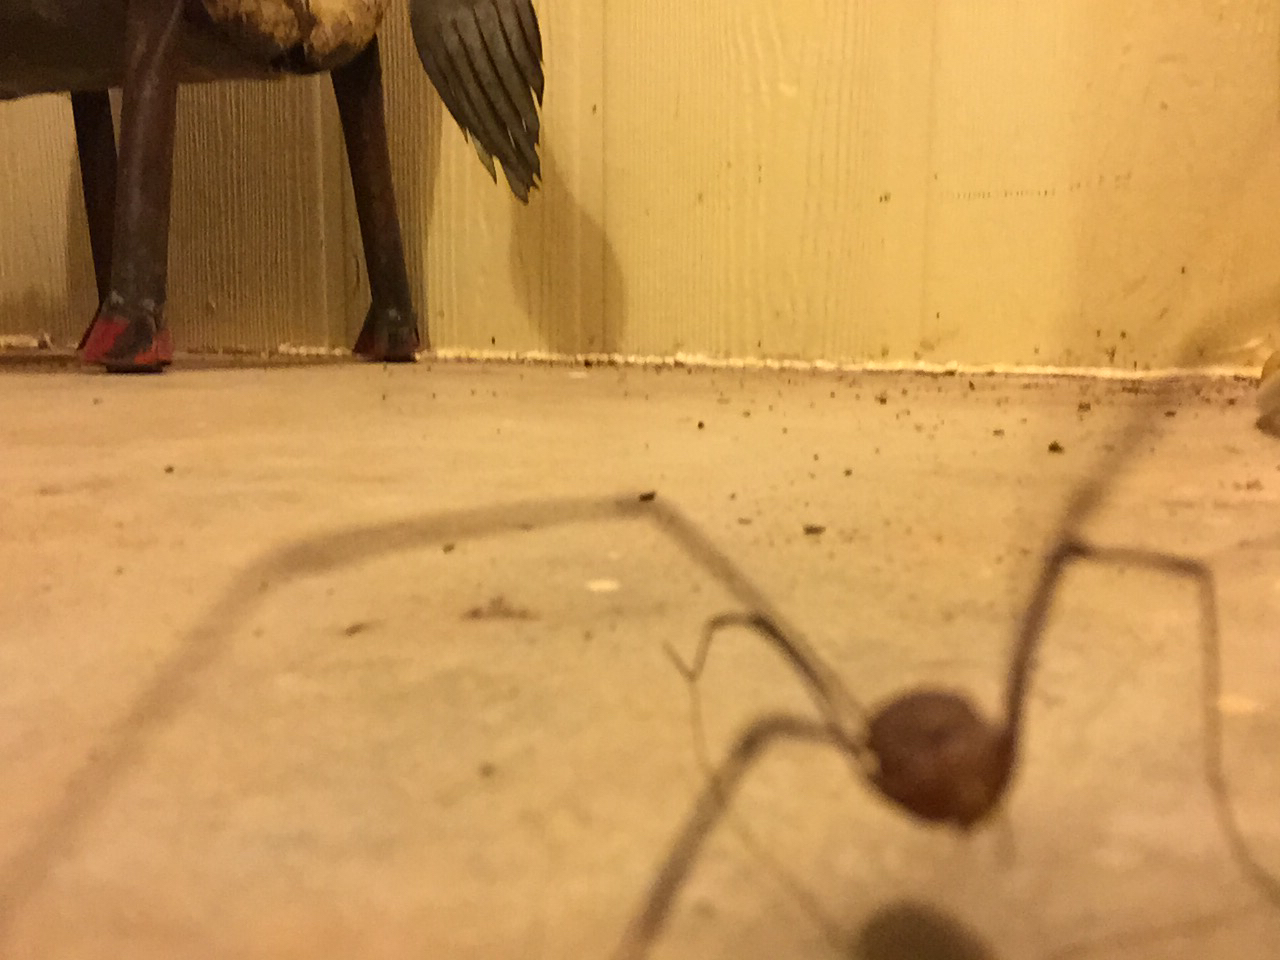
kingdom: Animalia
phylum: Arthropoda
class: Arachnida
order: Opiliones
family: Sclerosomatidae
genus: Leiobunum
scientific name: Leiobunum flavum
